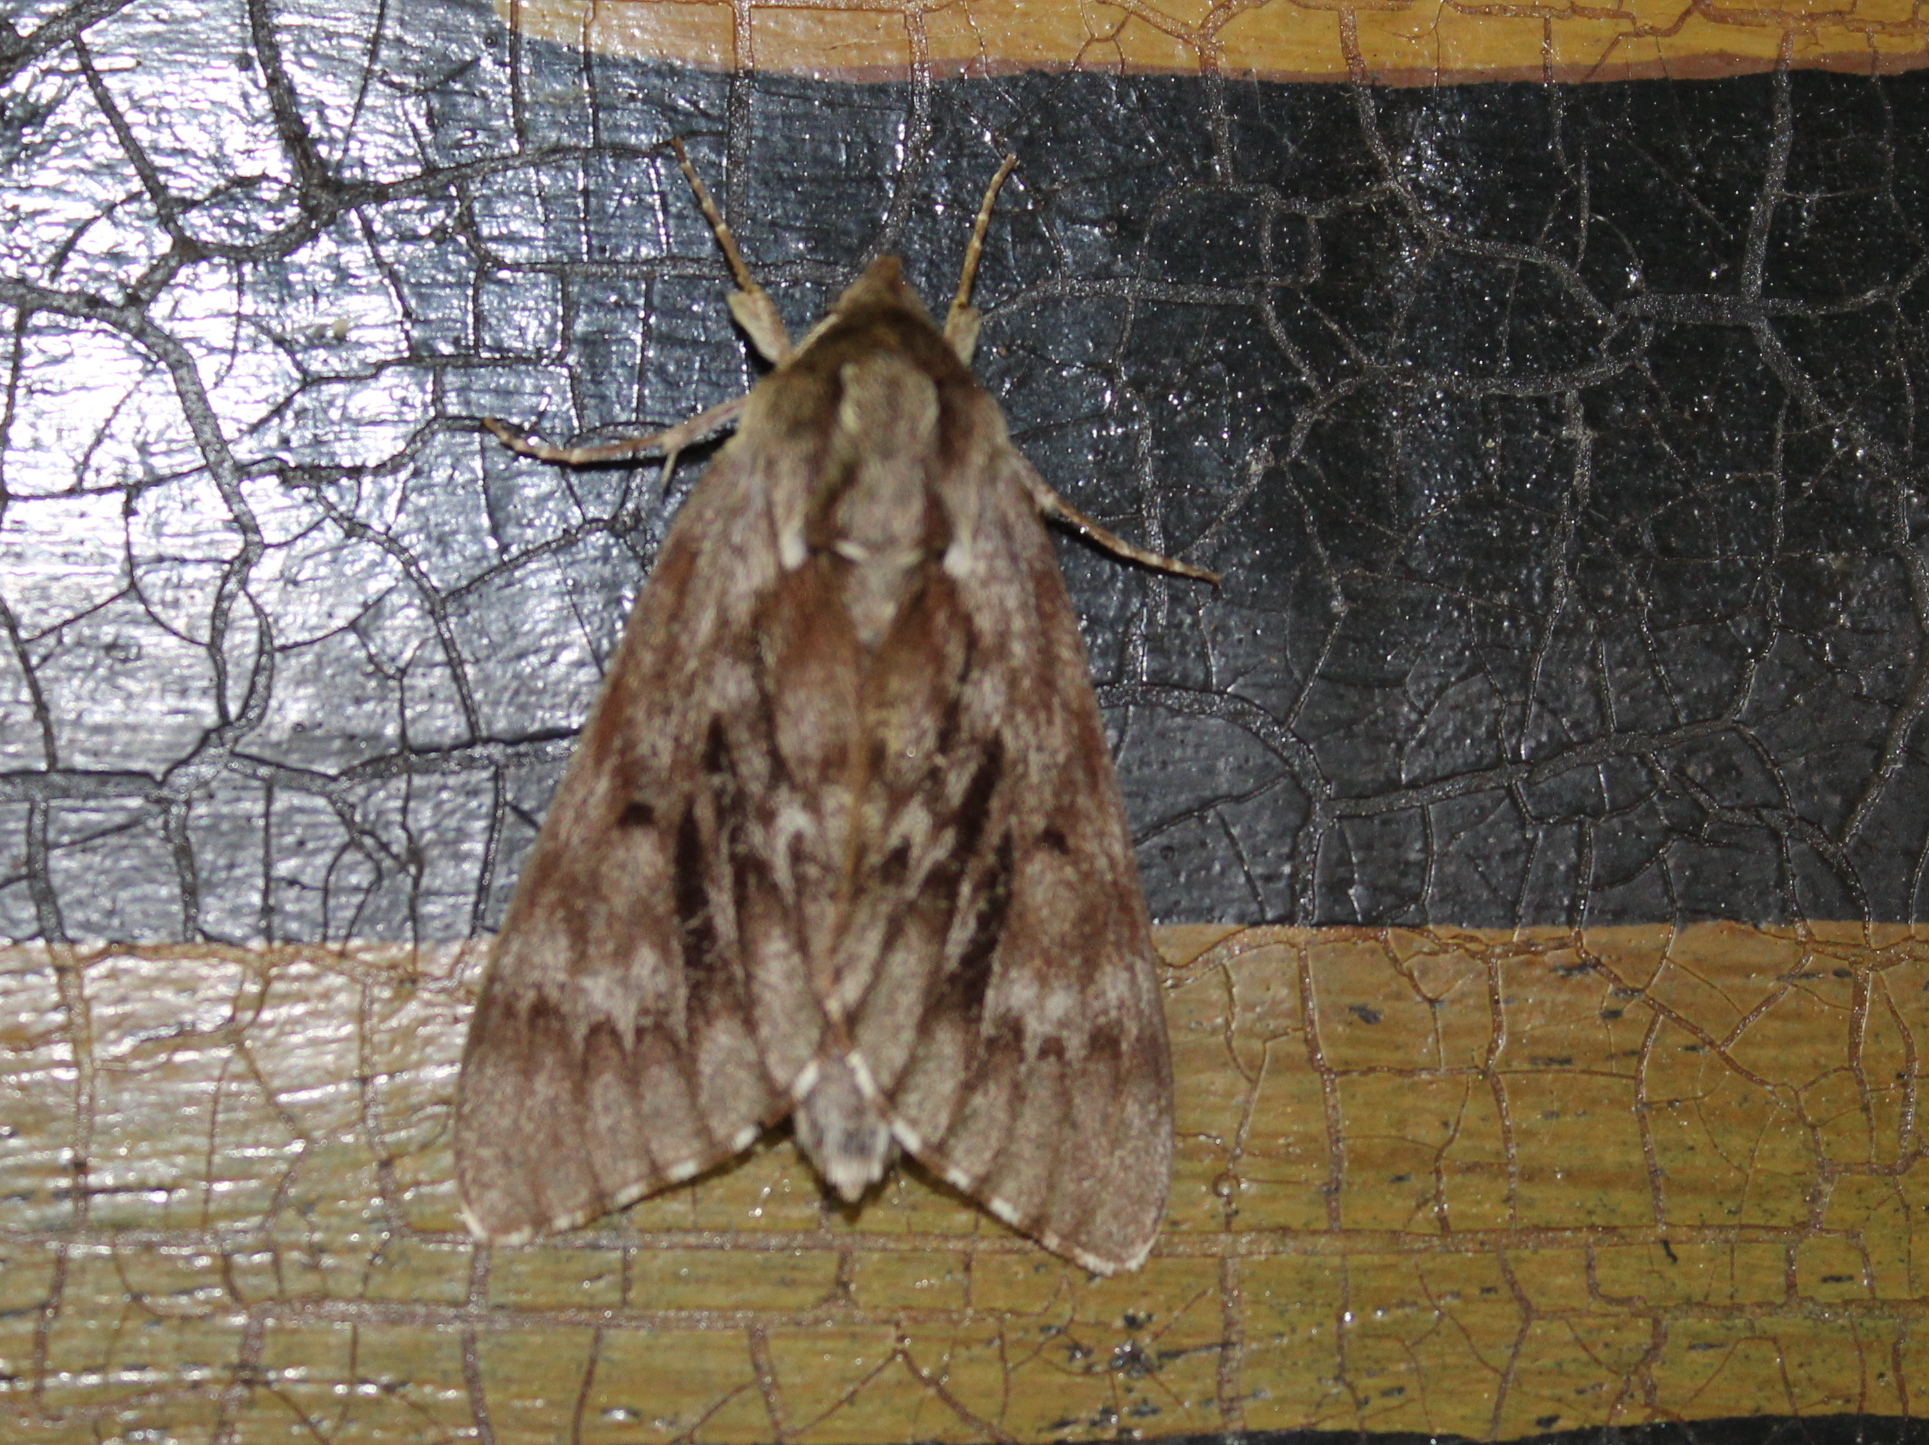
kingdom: Animalia
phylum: Arthropoda
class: Insecta
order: Lepidoptera
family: Sphingidae
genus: Lapara
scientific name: Lapara bombycoides
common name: Northern pine sphinx
